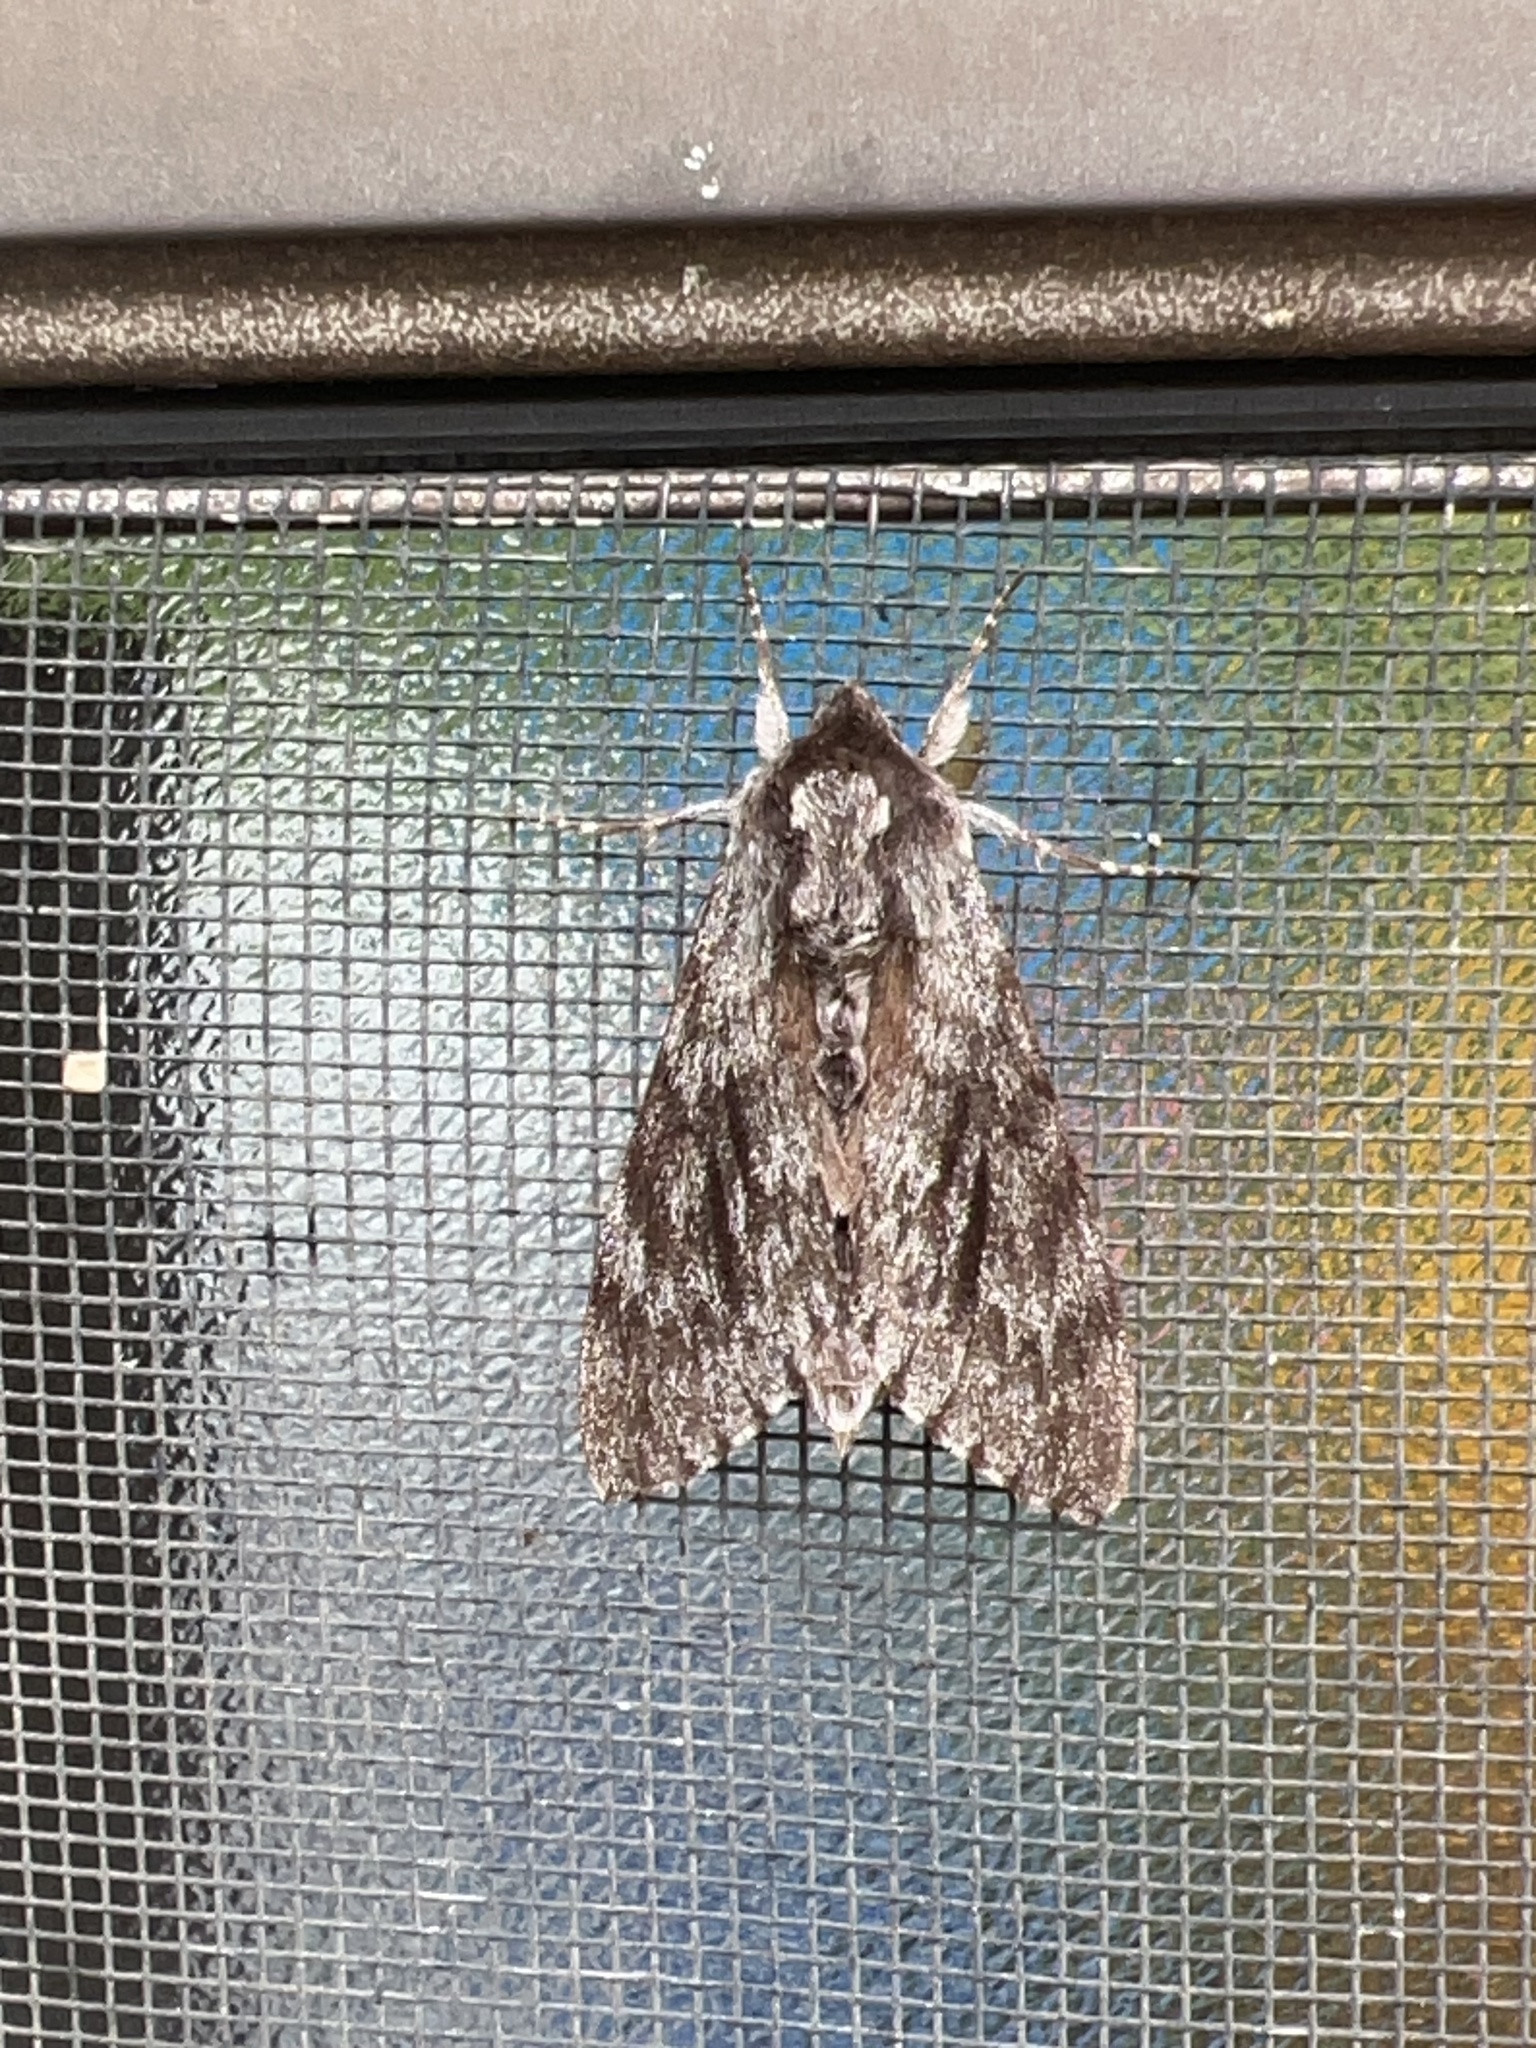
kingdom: Animalia
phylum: Arthropoda
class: Insecta
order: Lepidoptera
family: Sphingidae
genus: Lapara
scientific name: Lapara bombycoides
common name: Northern pine sphinx
